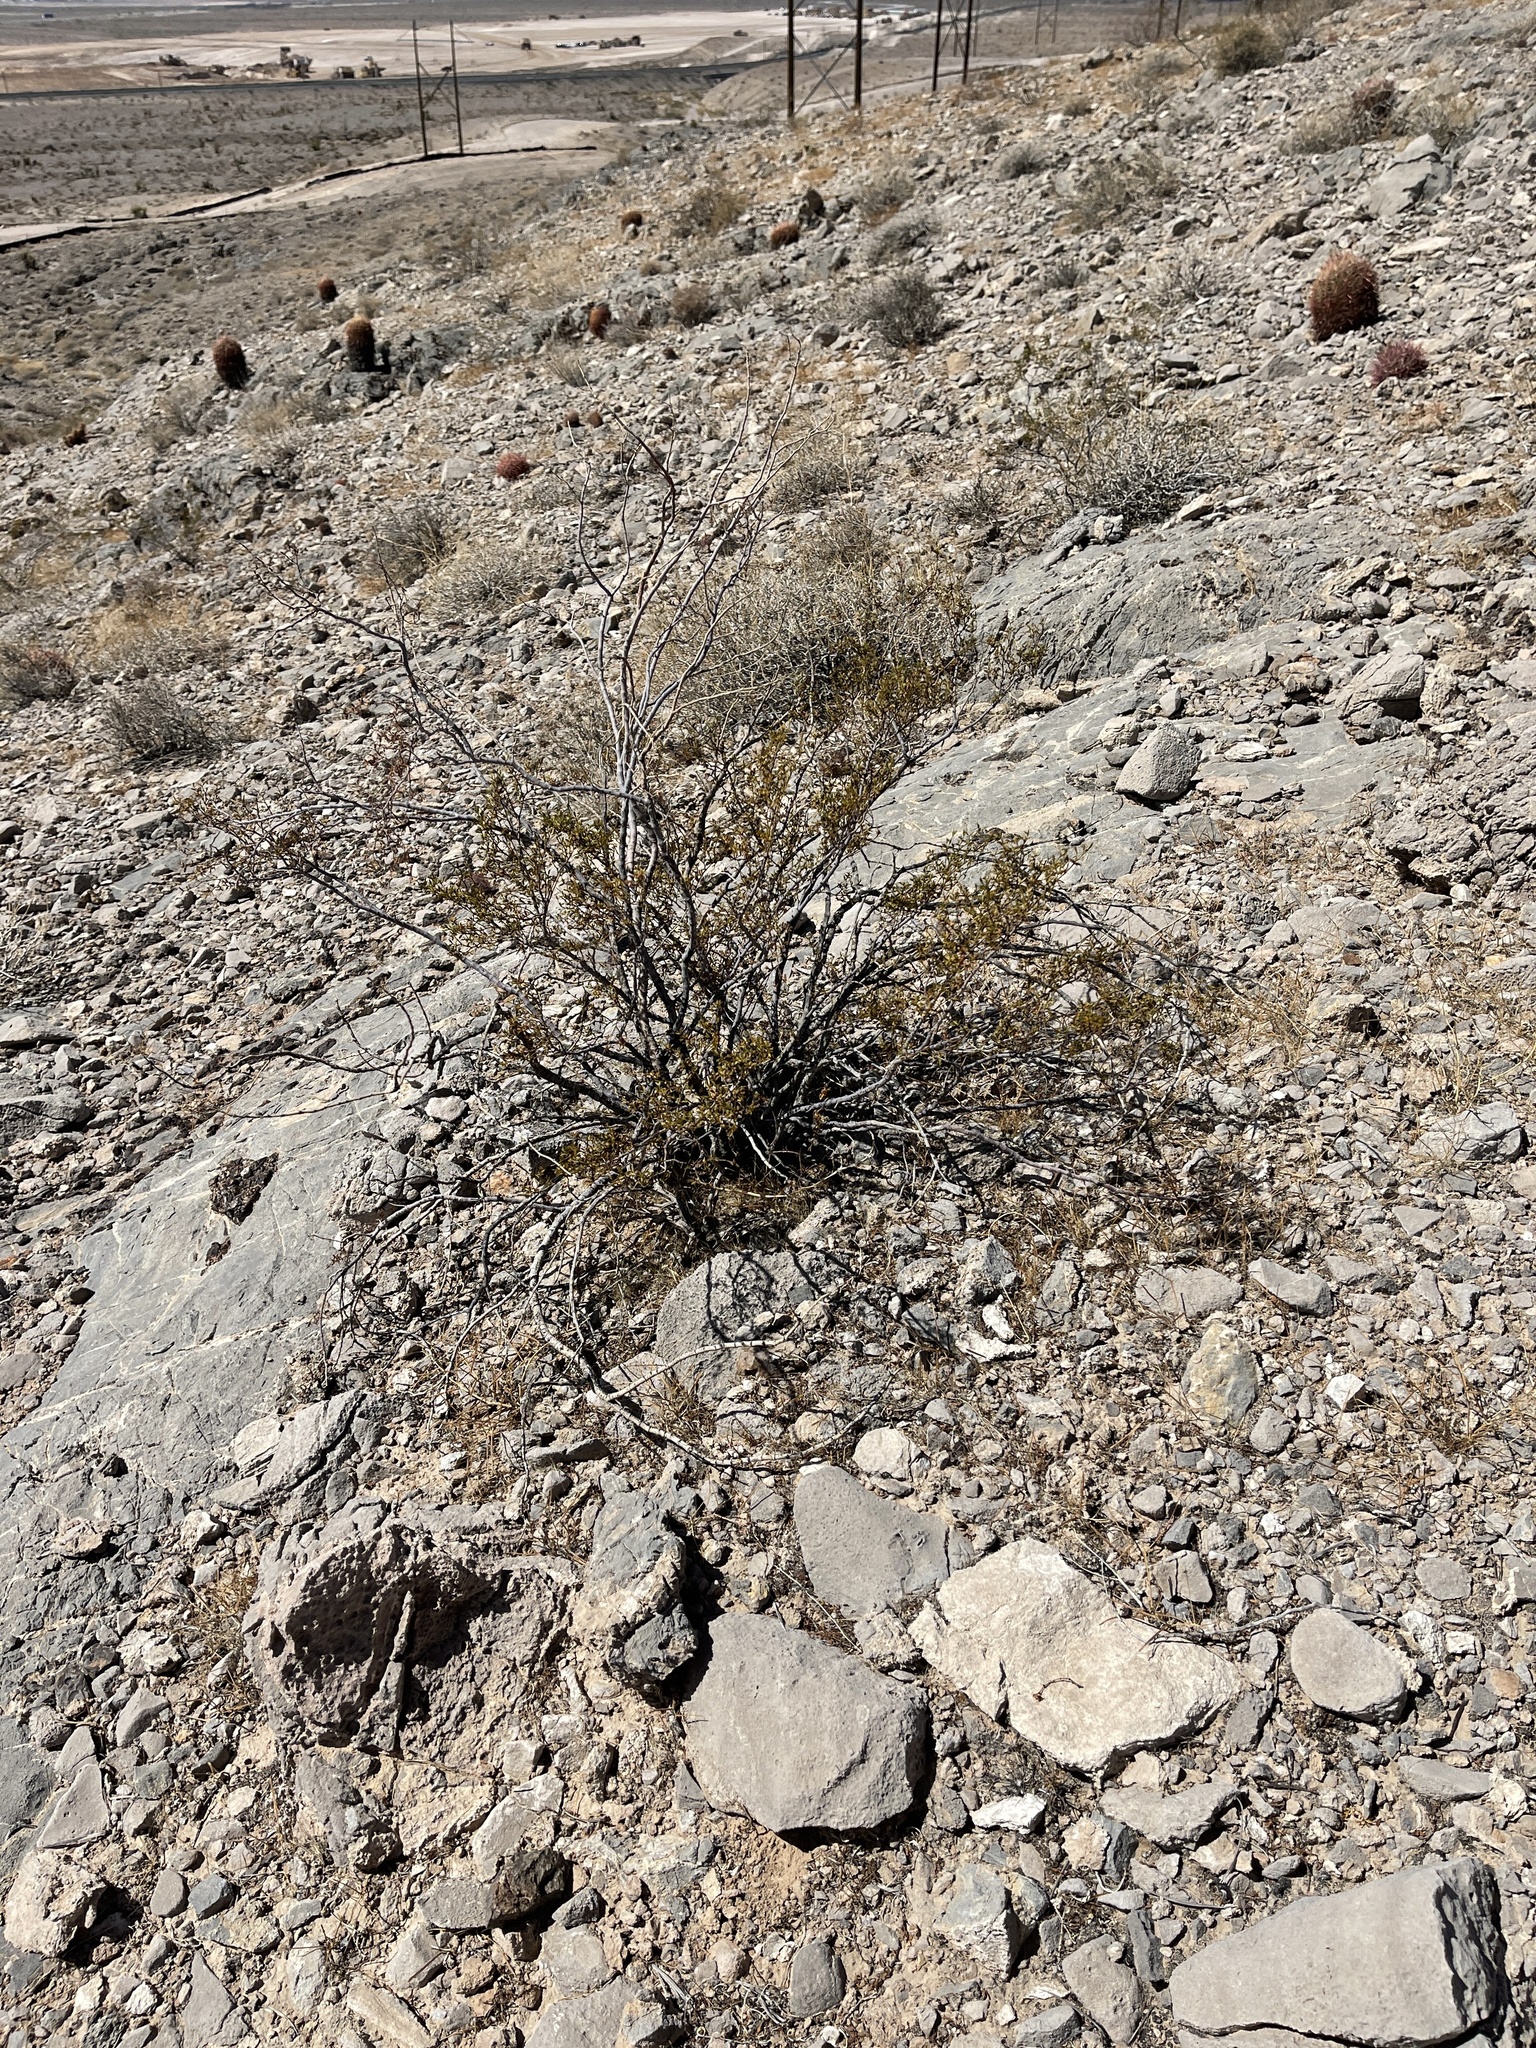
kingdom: Plantae
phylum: Tracheophyta
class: Magnoliopsida
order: Zygophyllales
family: Zygophyllaceae
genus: Larrea
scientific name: Larrea tridentata
